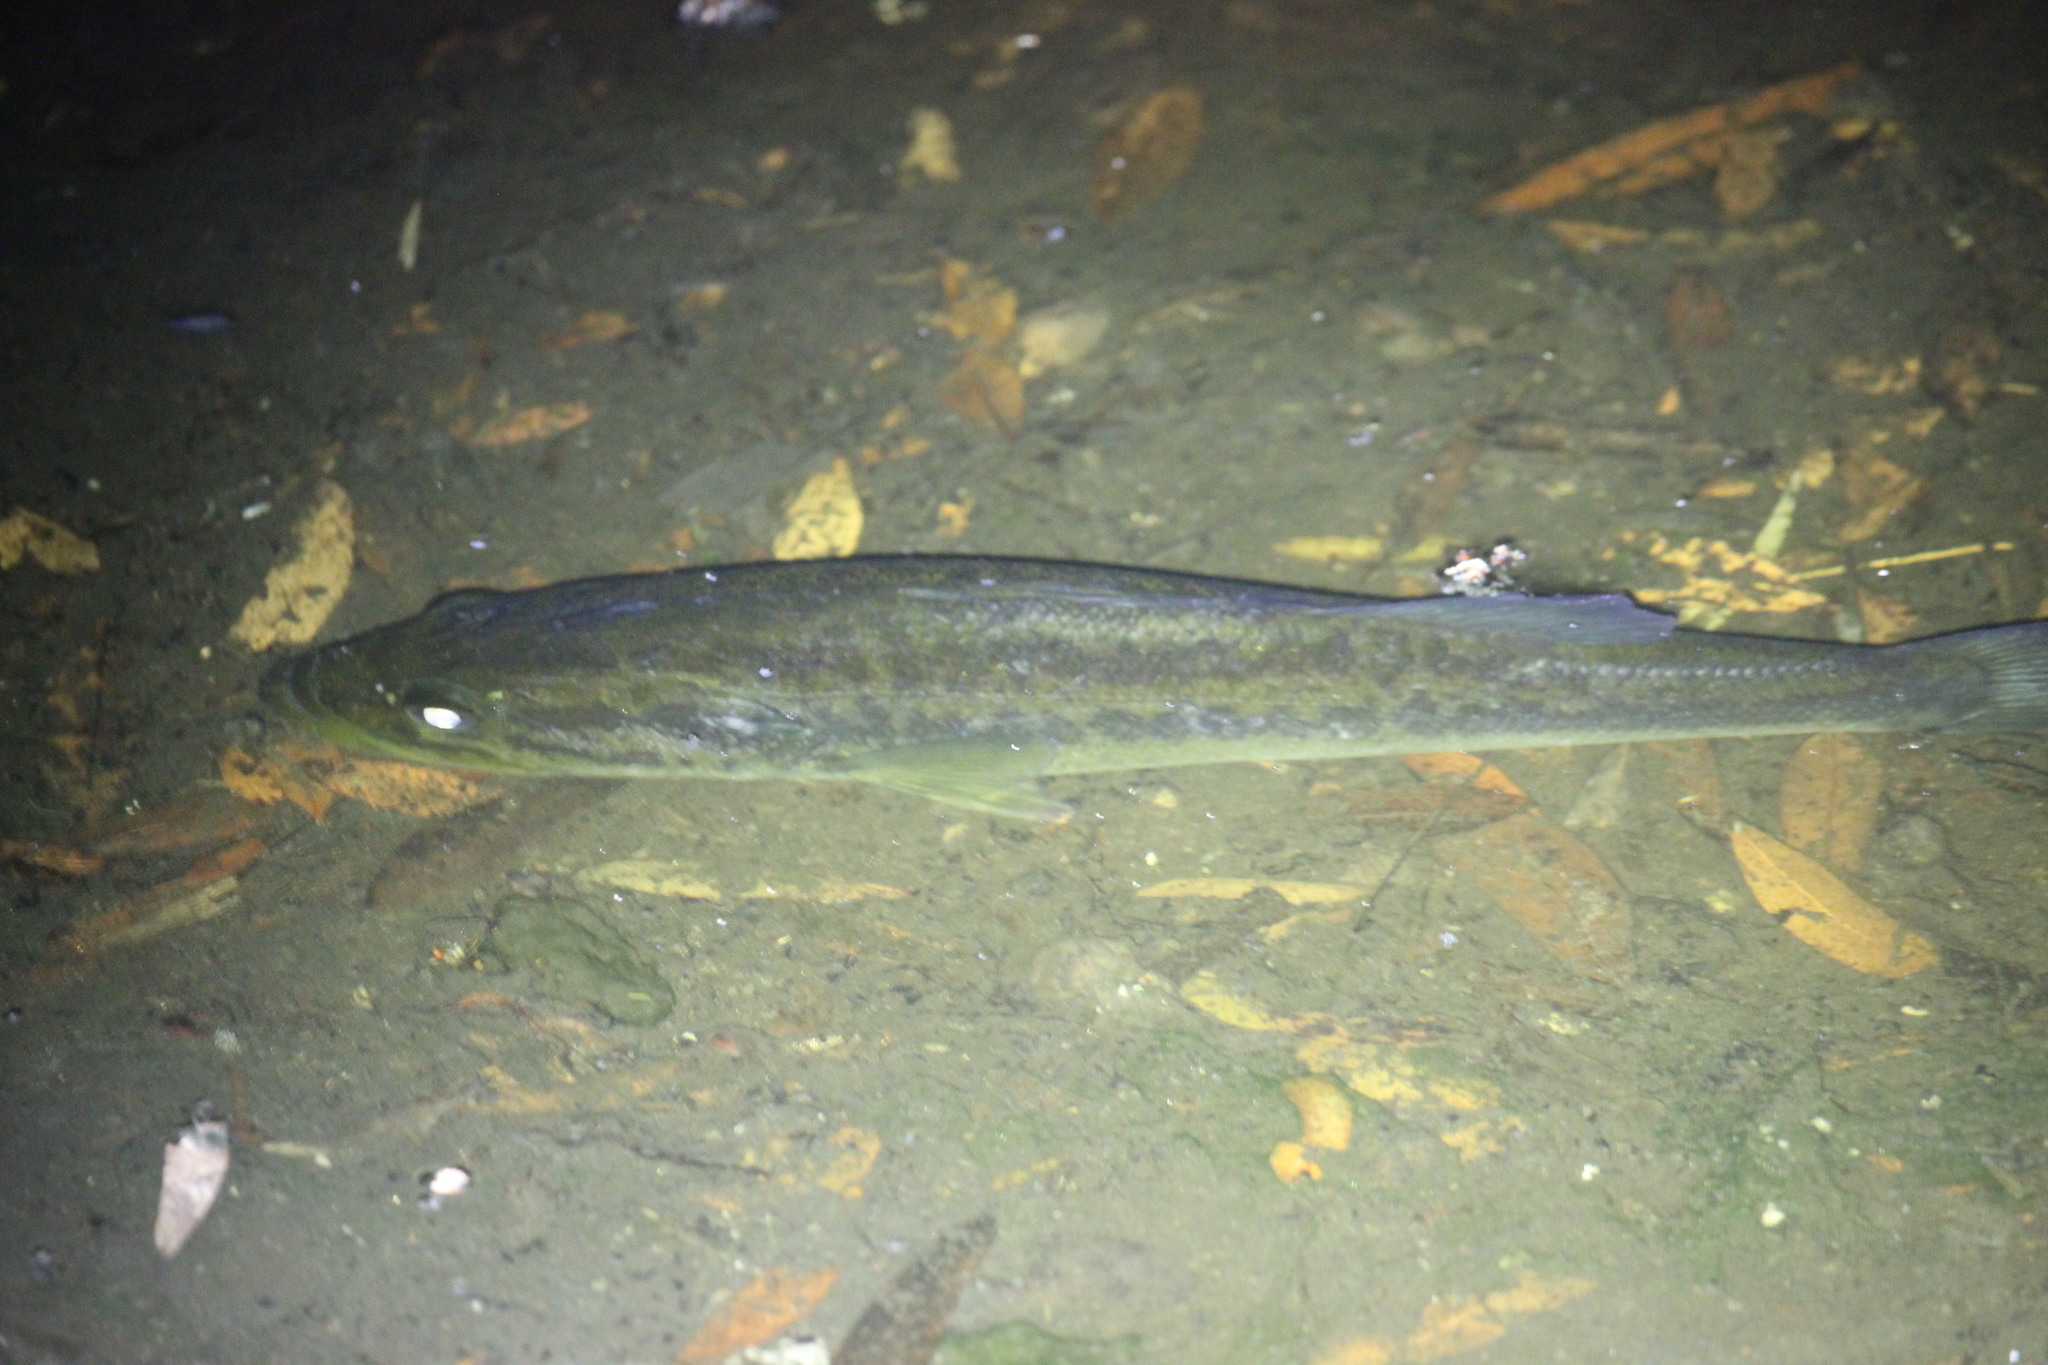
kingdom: Animalia
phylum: Chordata
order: Perciformes
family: Centrarchidae
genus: Micropterus
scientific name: Micropterus salmoides
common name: Largemouth bass
